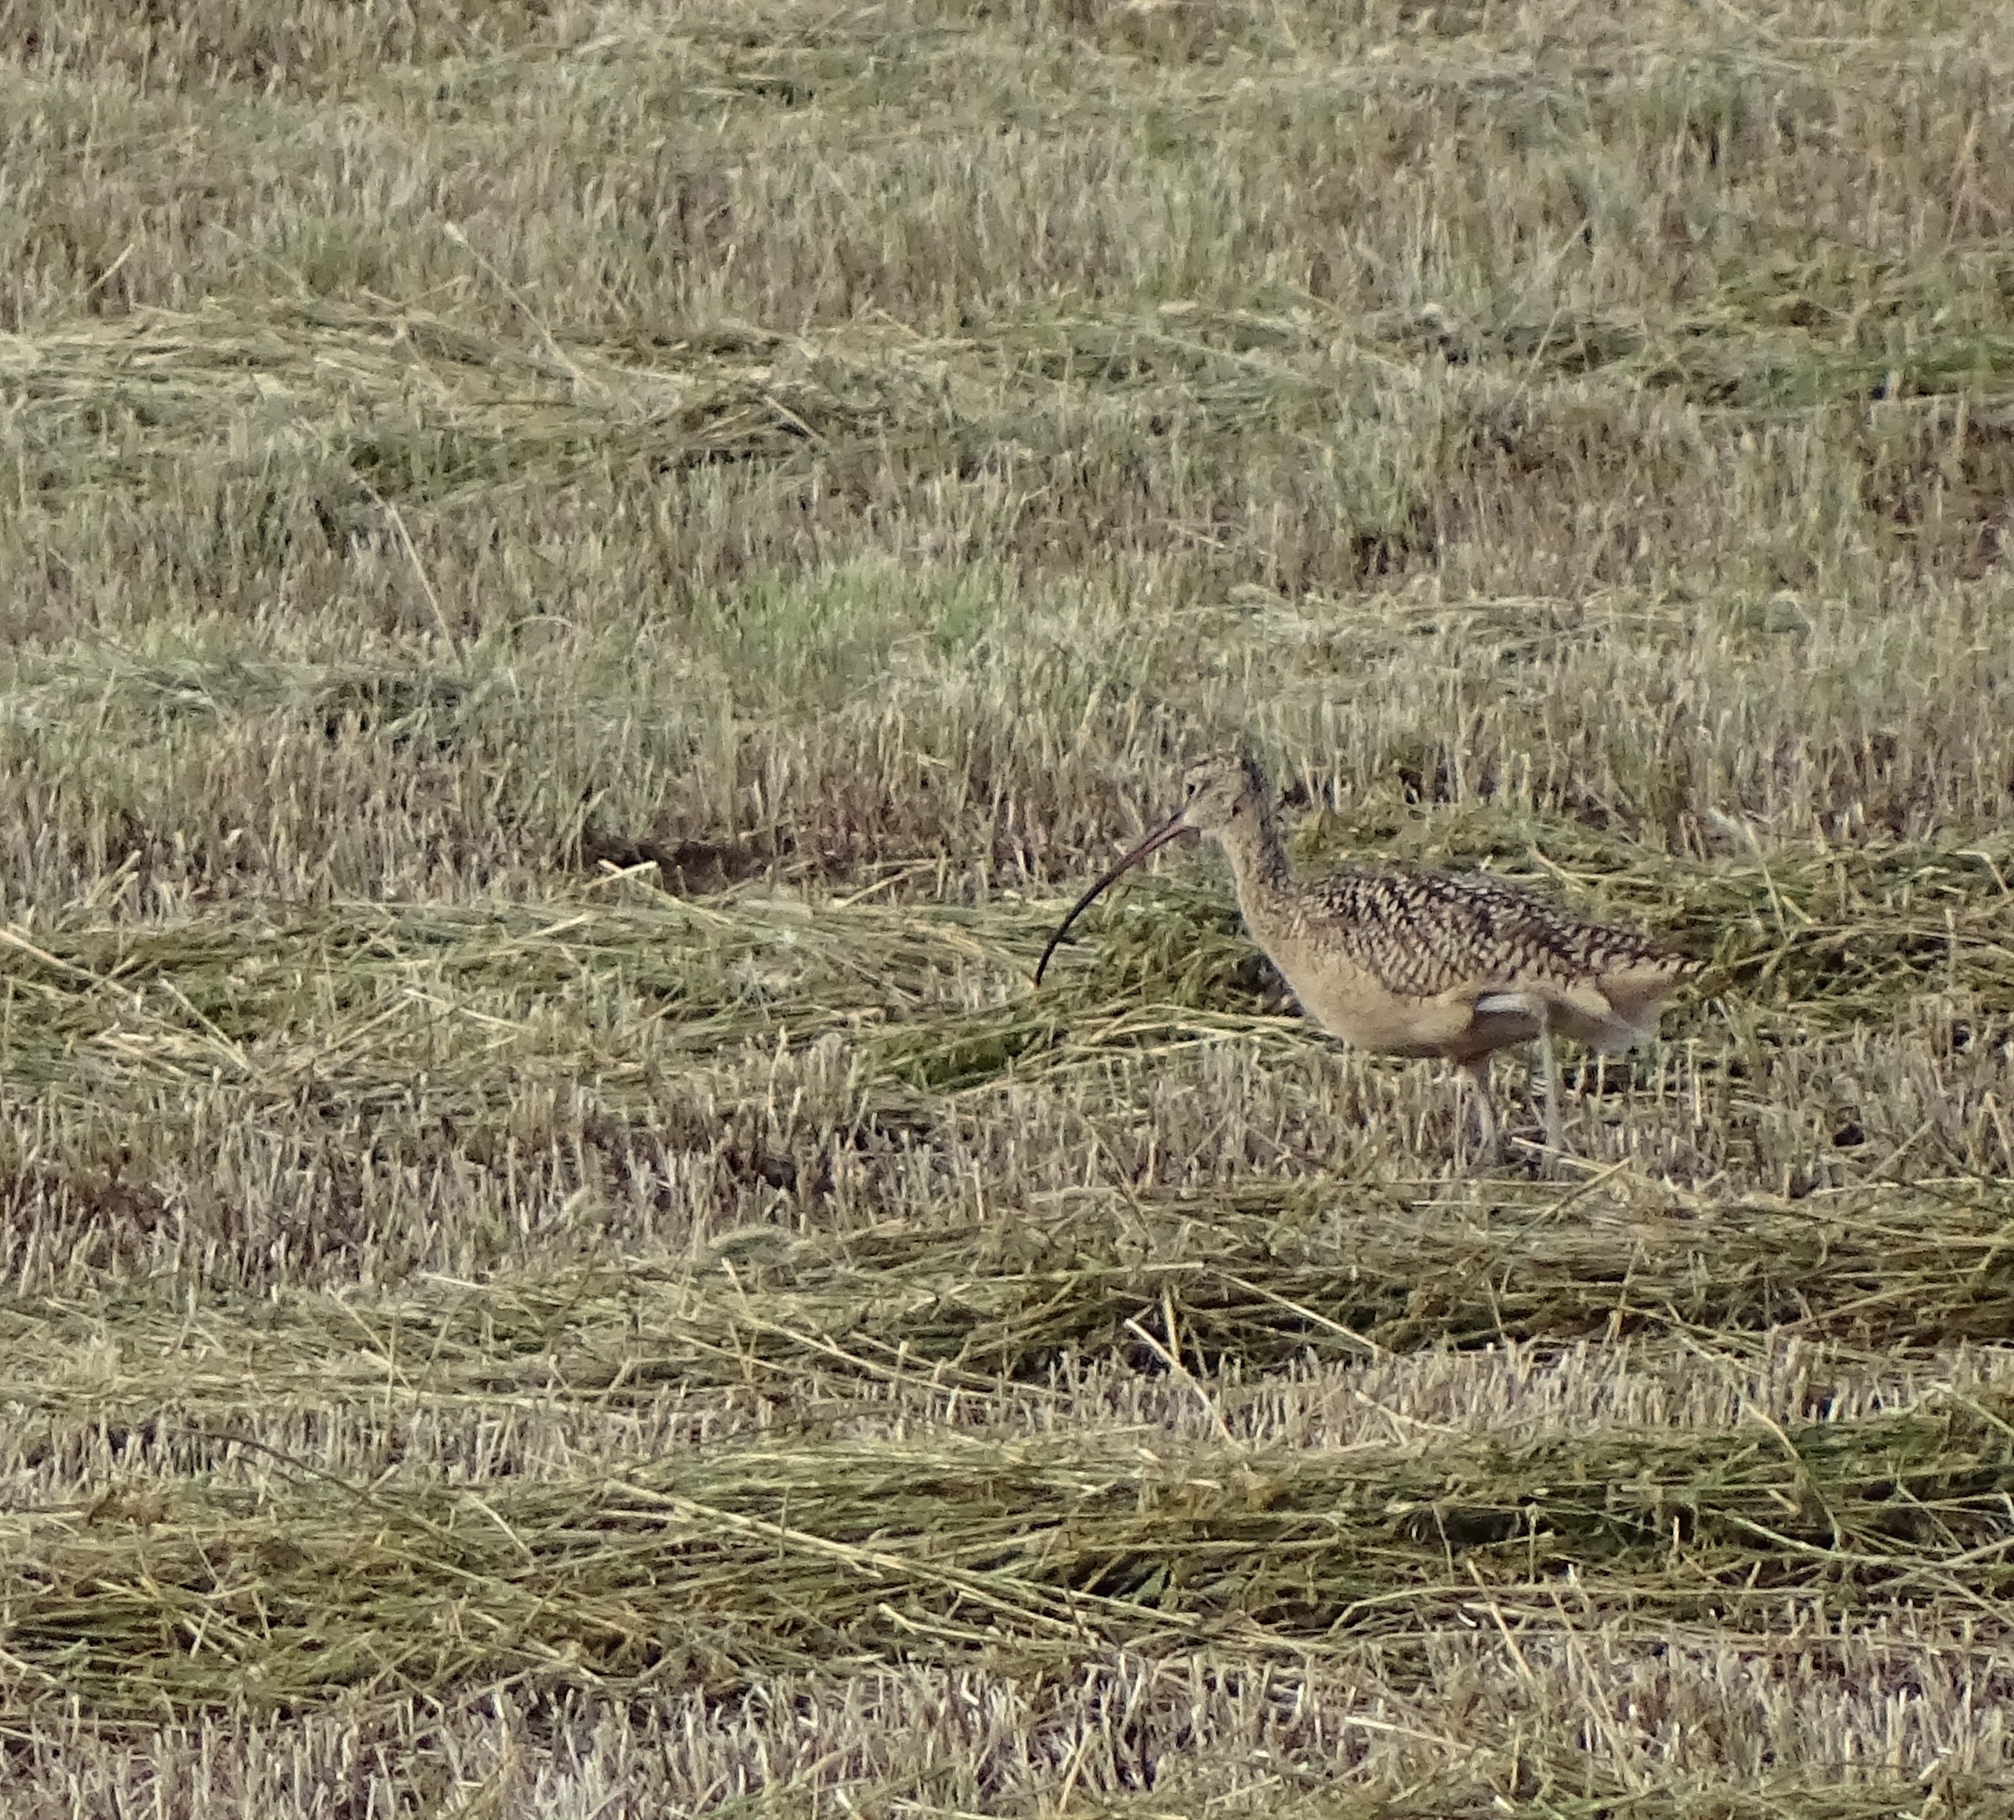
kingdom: Animalia
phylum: Chordata
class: Aves
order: Charadriiformes
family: Scolopacidae
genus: Numenius
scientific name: Numenius americanus
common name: Long-billed curlew
